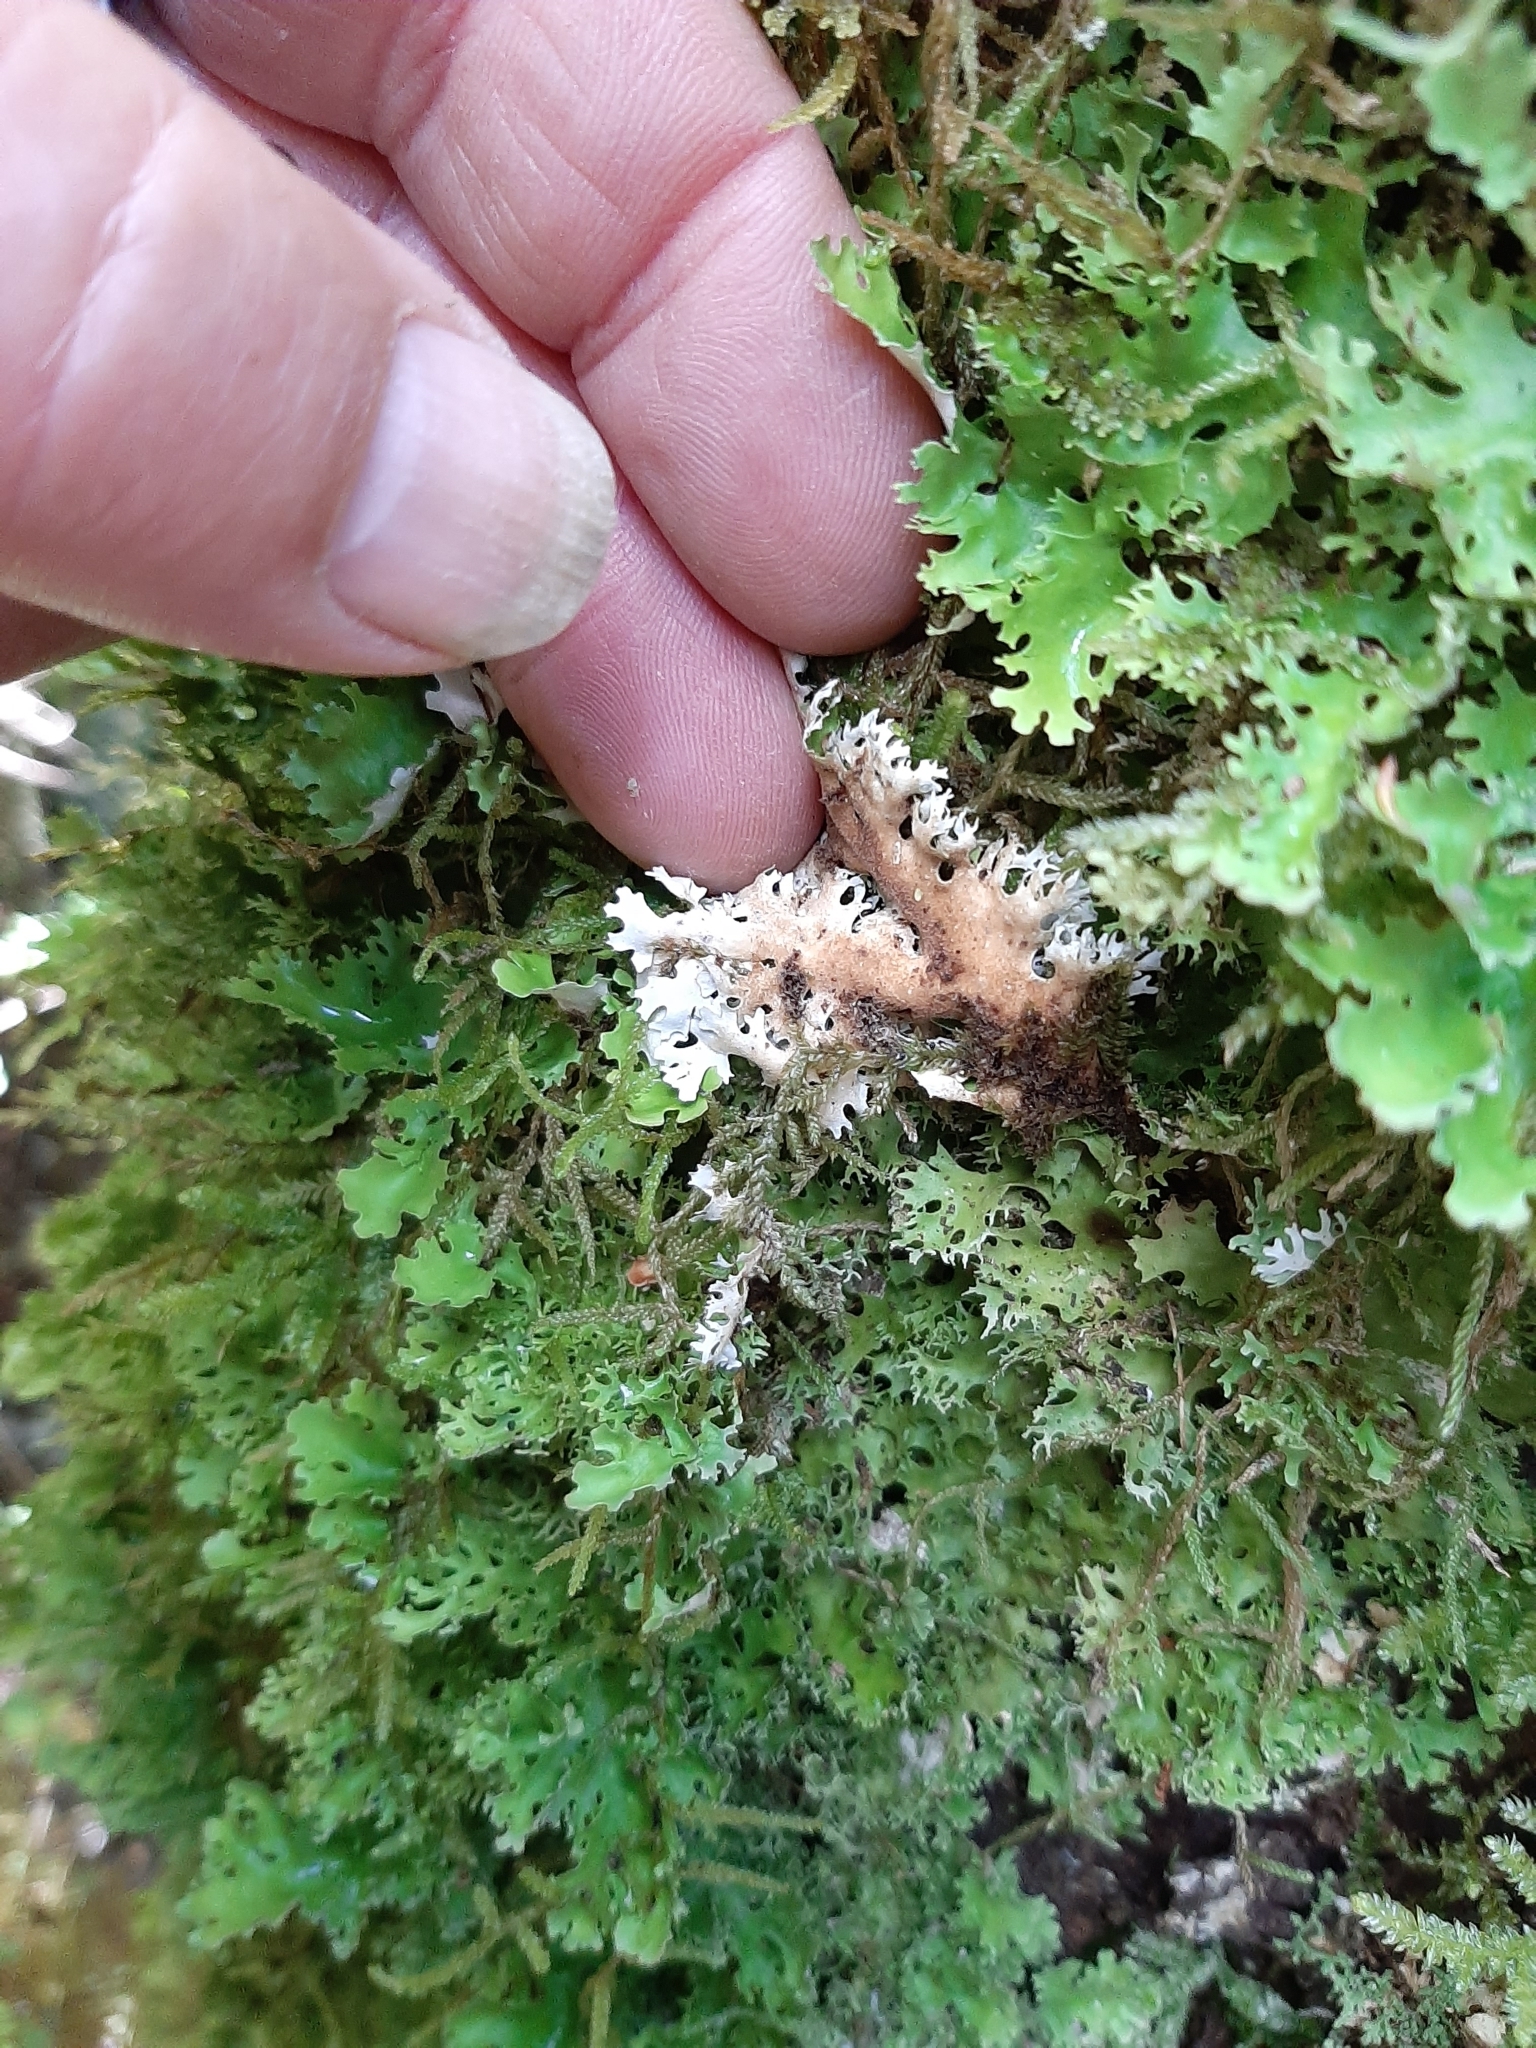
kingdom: Fungi
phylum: Ascomycota
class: Lecanoromycetes
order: Peltigerales
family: Lobariaceae
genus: Pseudocyphellaria
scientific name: Pseudocyphellaria multifida
